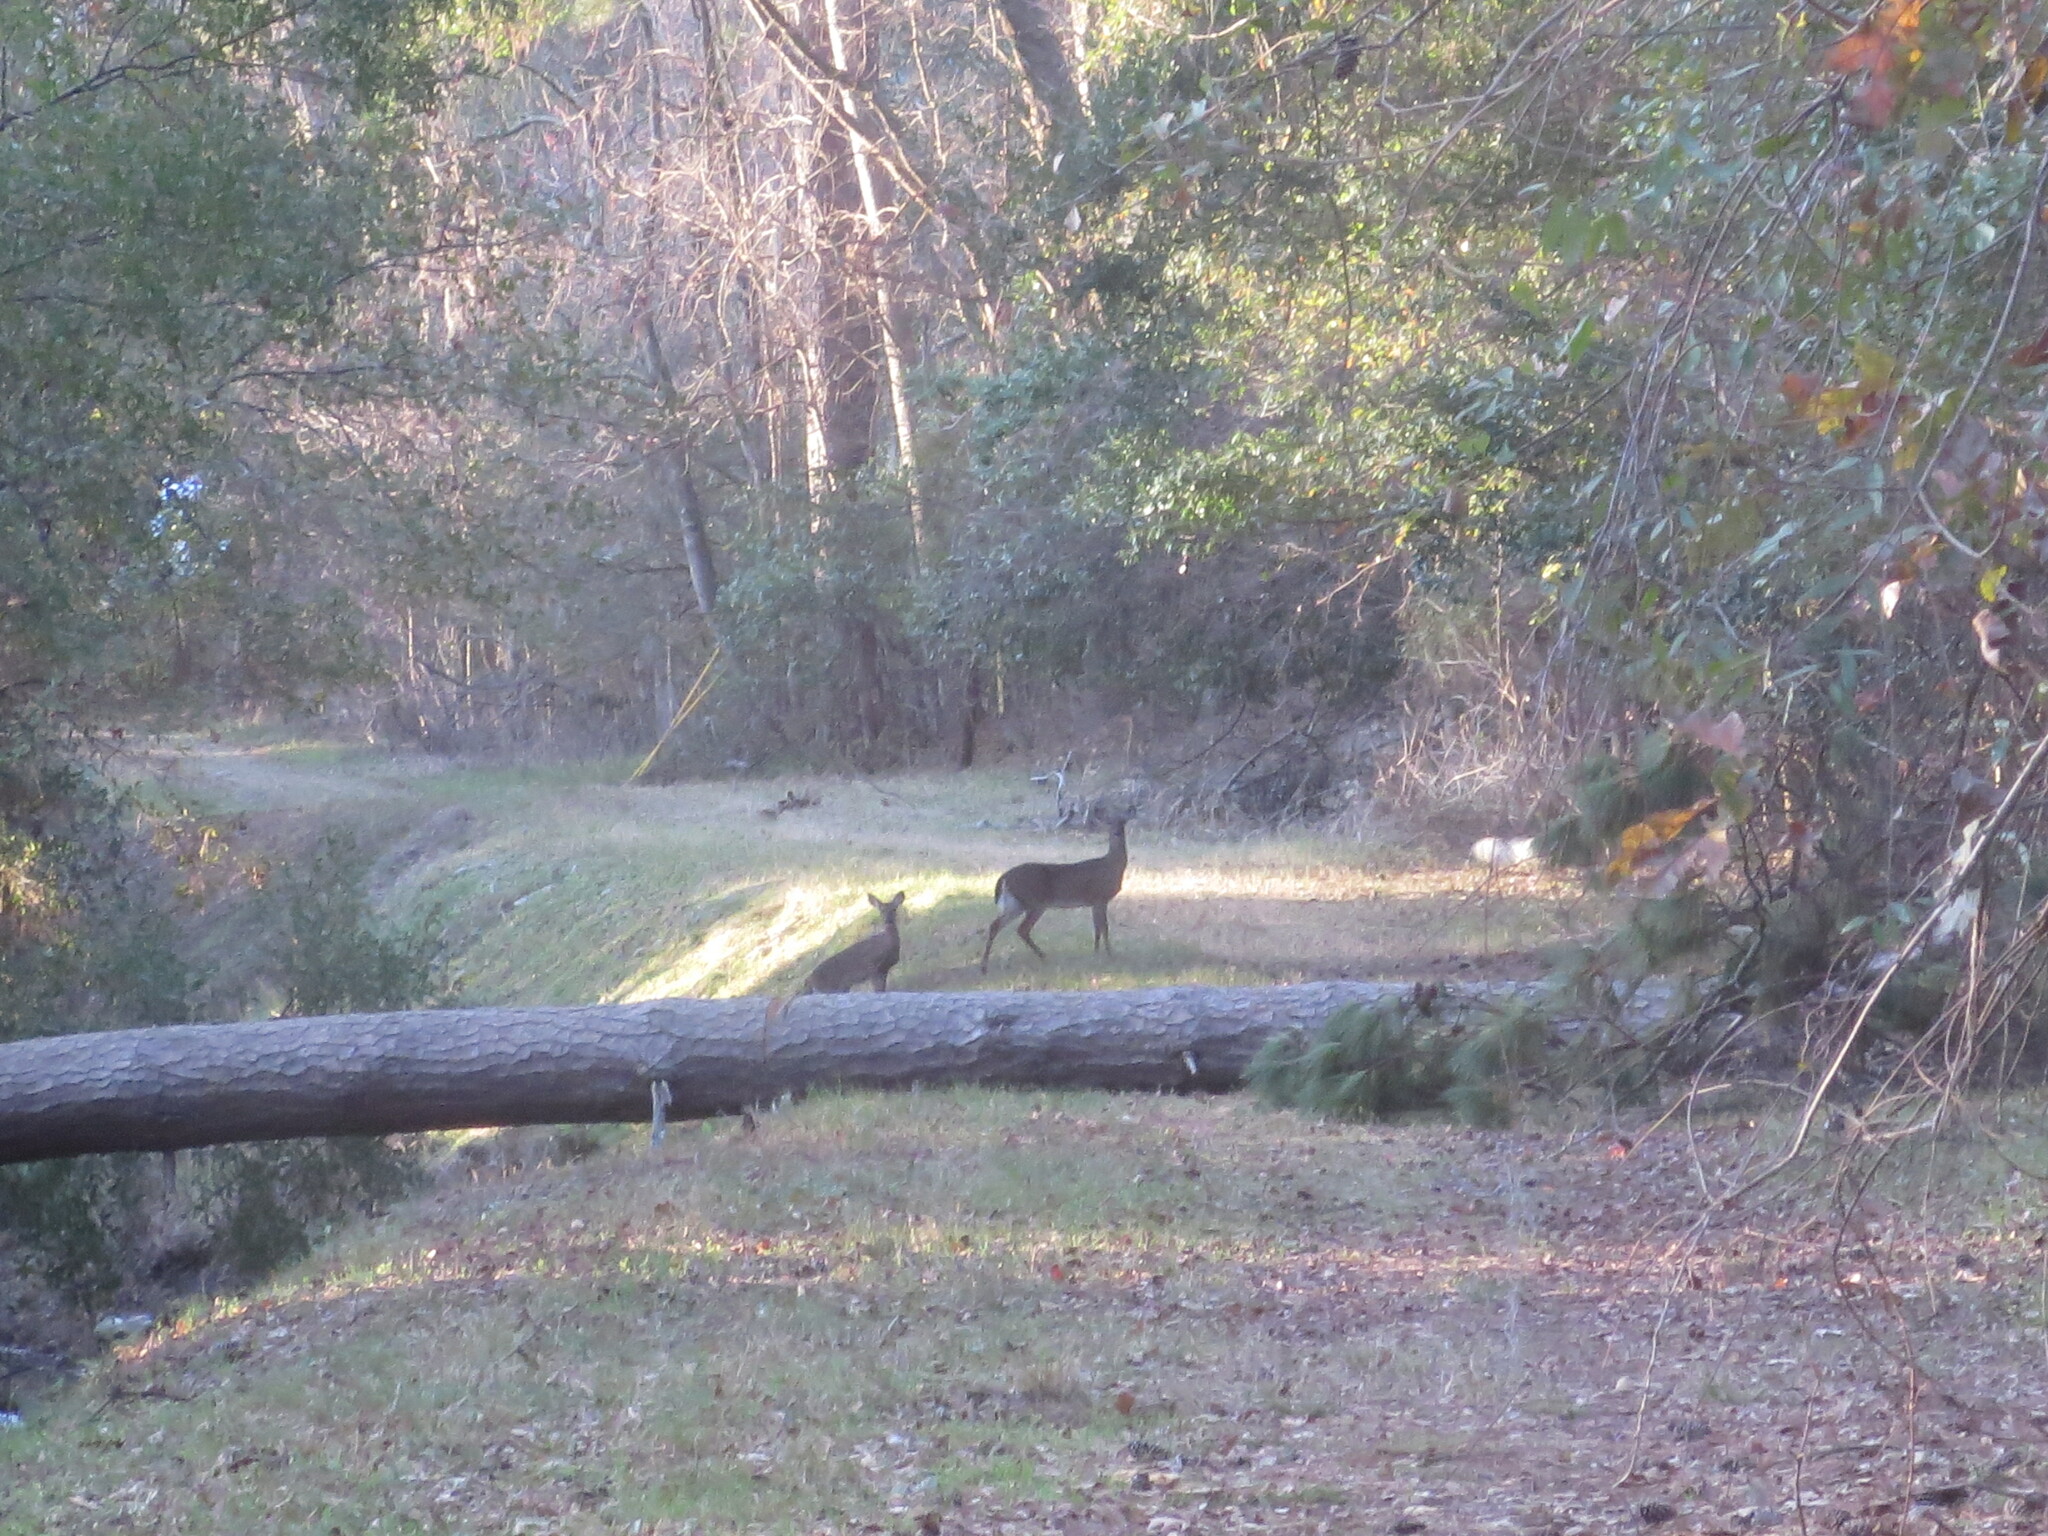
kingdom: Animalia
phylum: Chordata
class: Mammalia
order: Artiodactyla
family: Cervidae
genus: Odocoileus
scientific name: Odocoileus virginianus
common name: White-tailed deer
